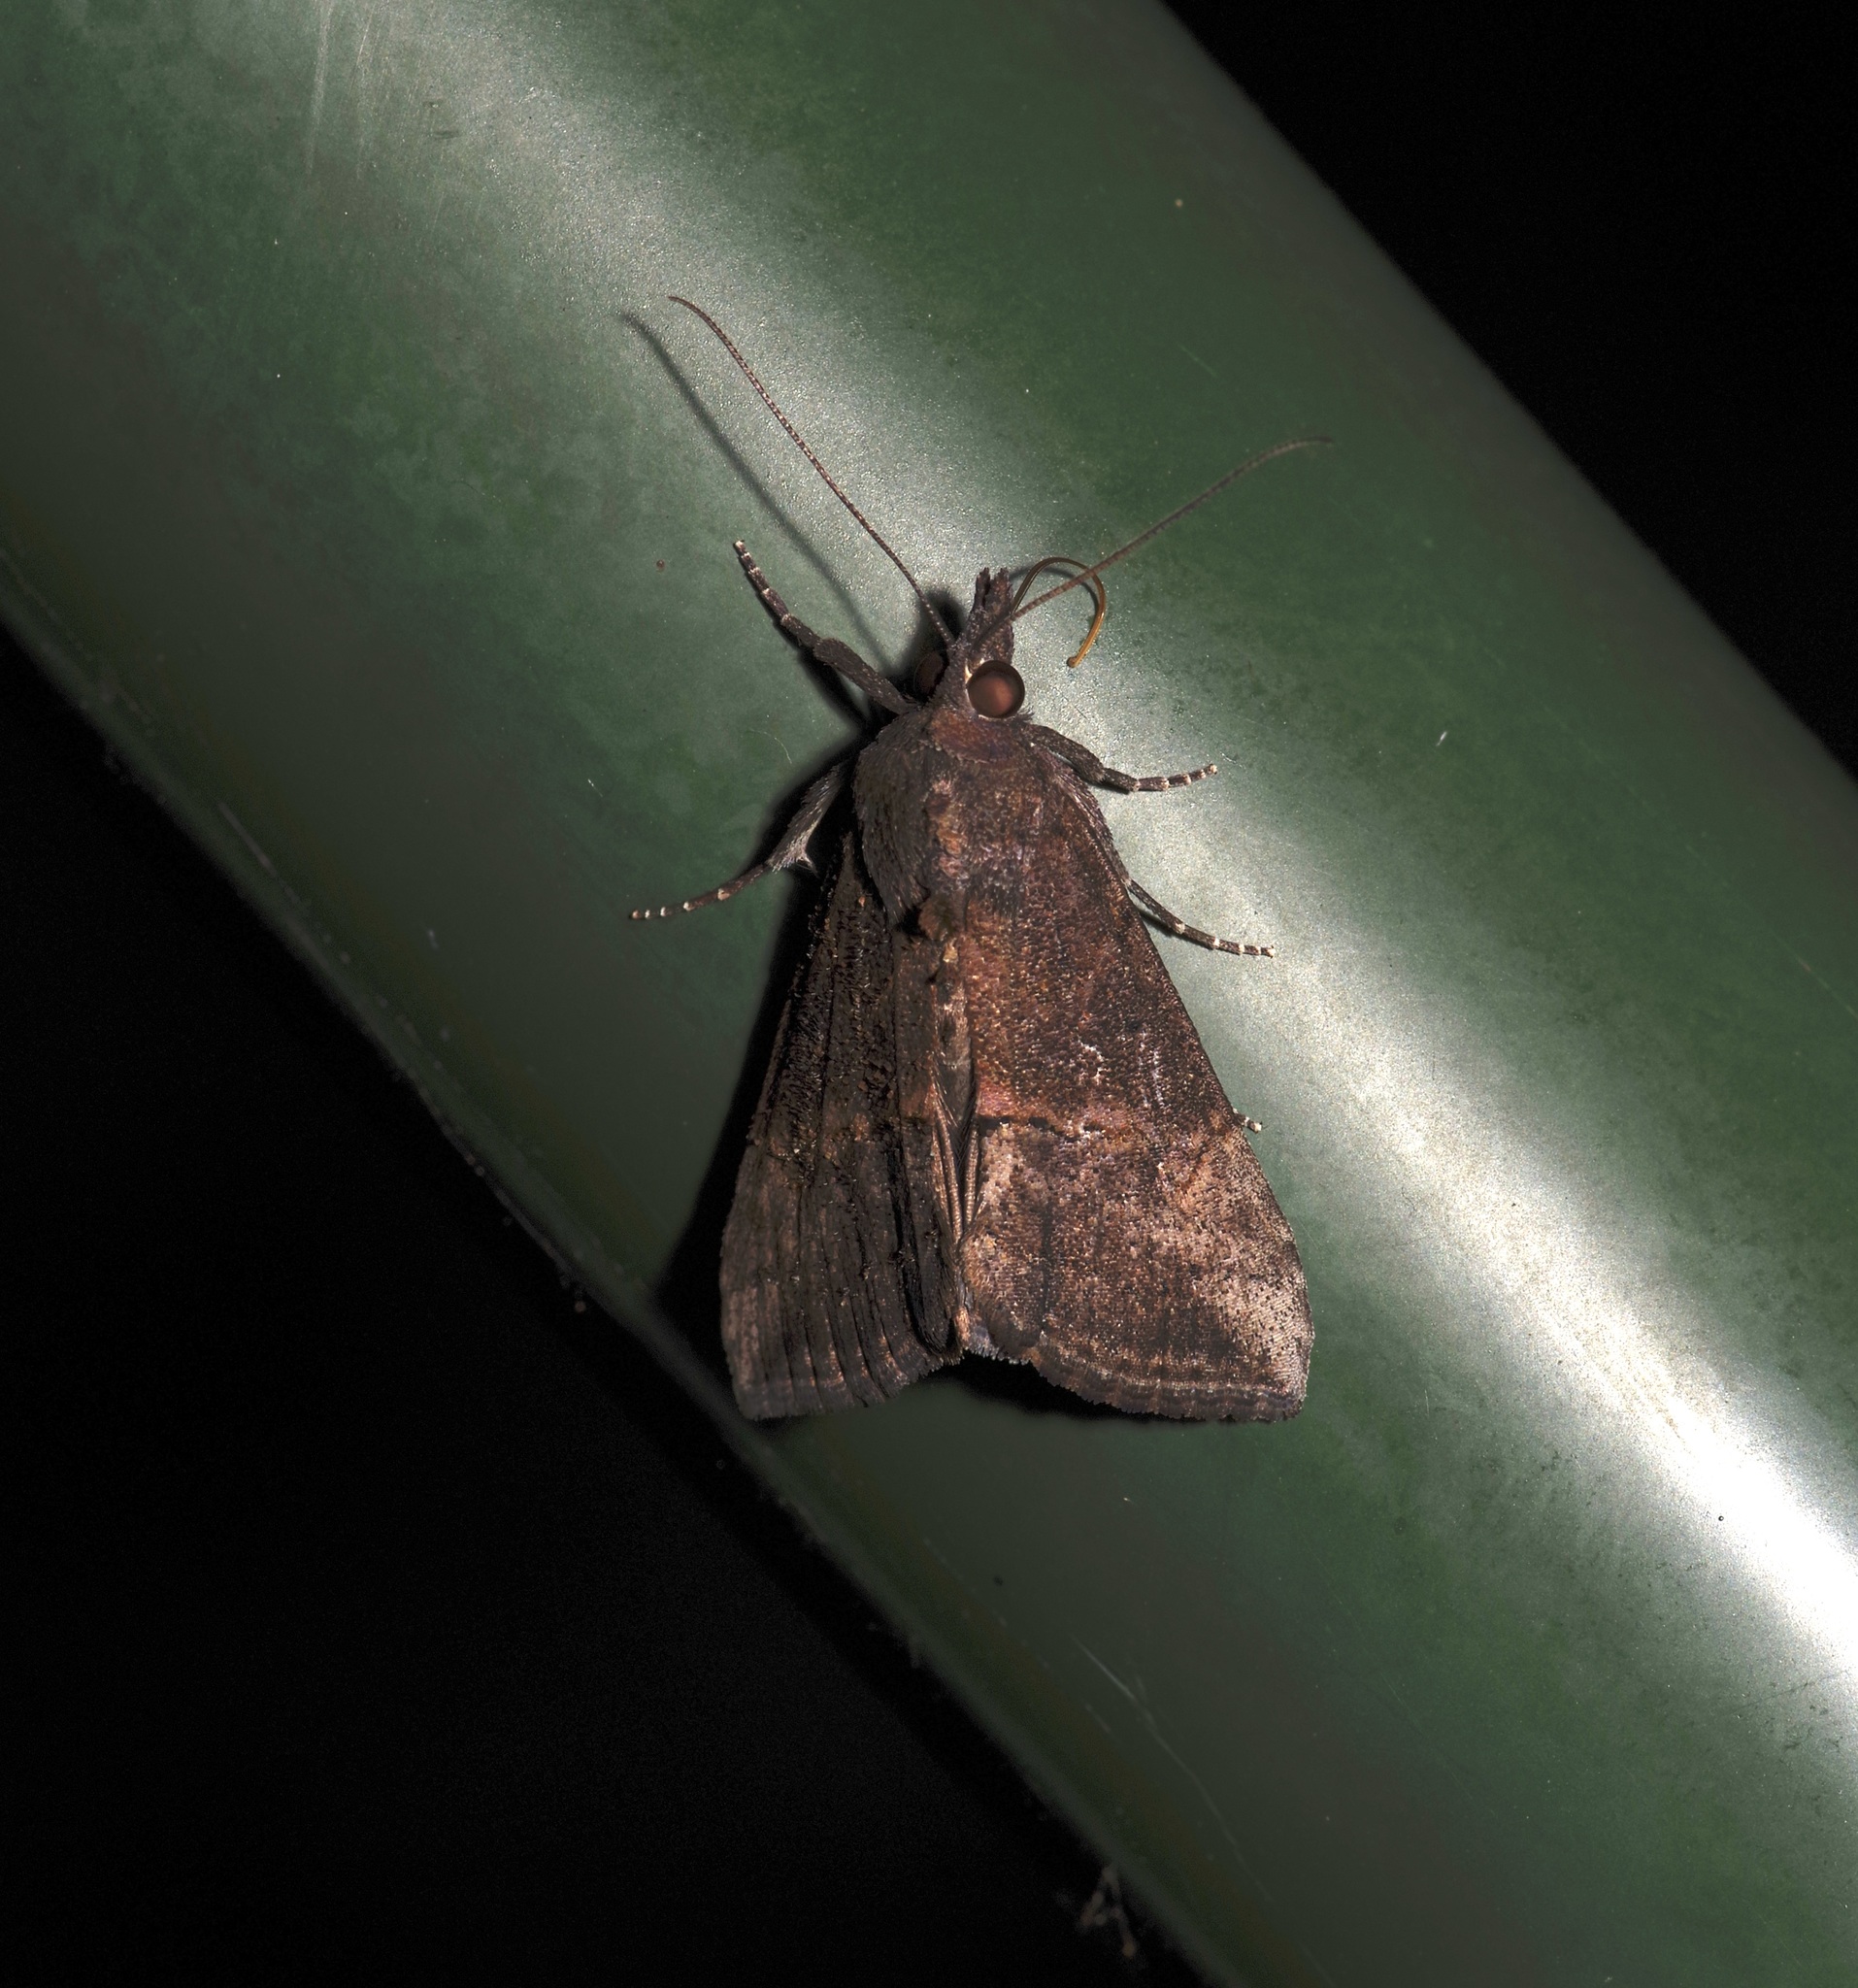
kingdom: Animalia
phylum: Arthropoda
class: Insecta
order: Lepidoptera
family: Erebidae
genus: Hypena
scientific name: Hypena scabra
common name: Green cloverworm
